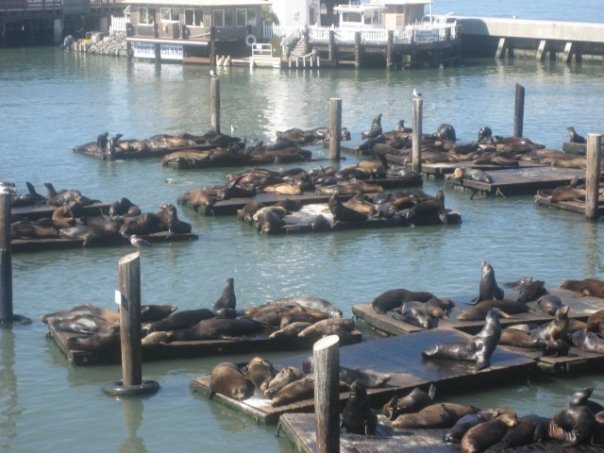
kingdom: Animalia
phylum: Chordata
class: Mammalia
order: Carnivora
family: Otariidae
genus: Zalophus
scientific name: Zalophus californianus
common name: California sea lion
